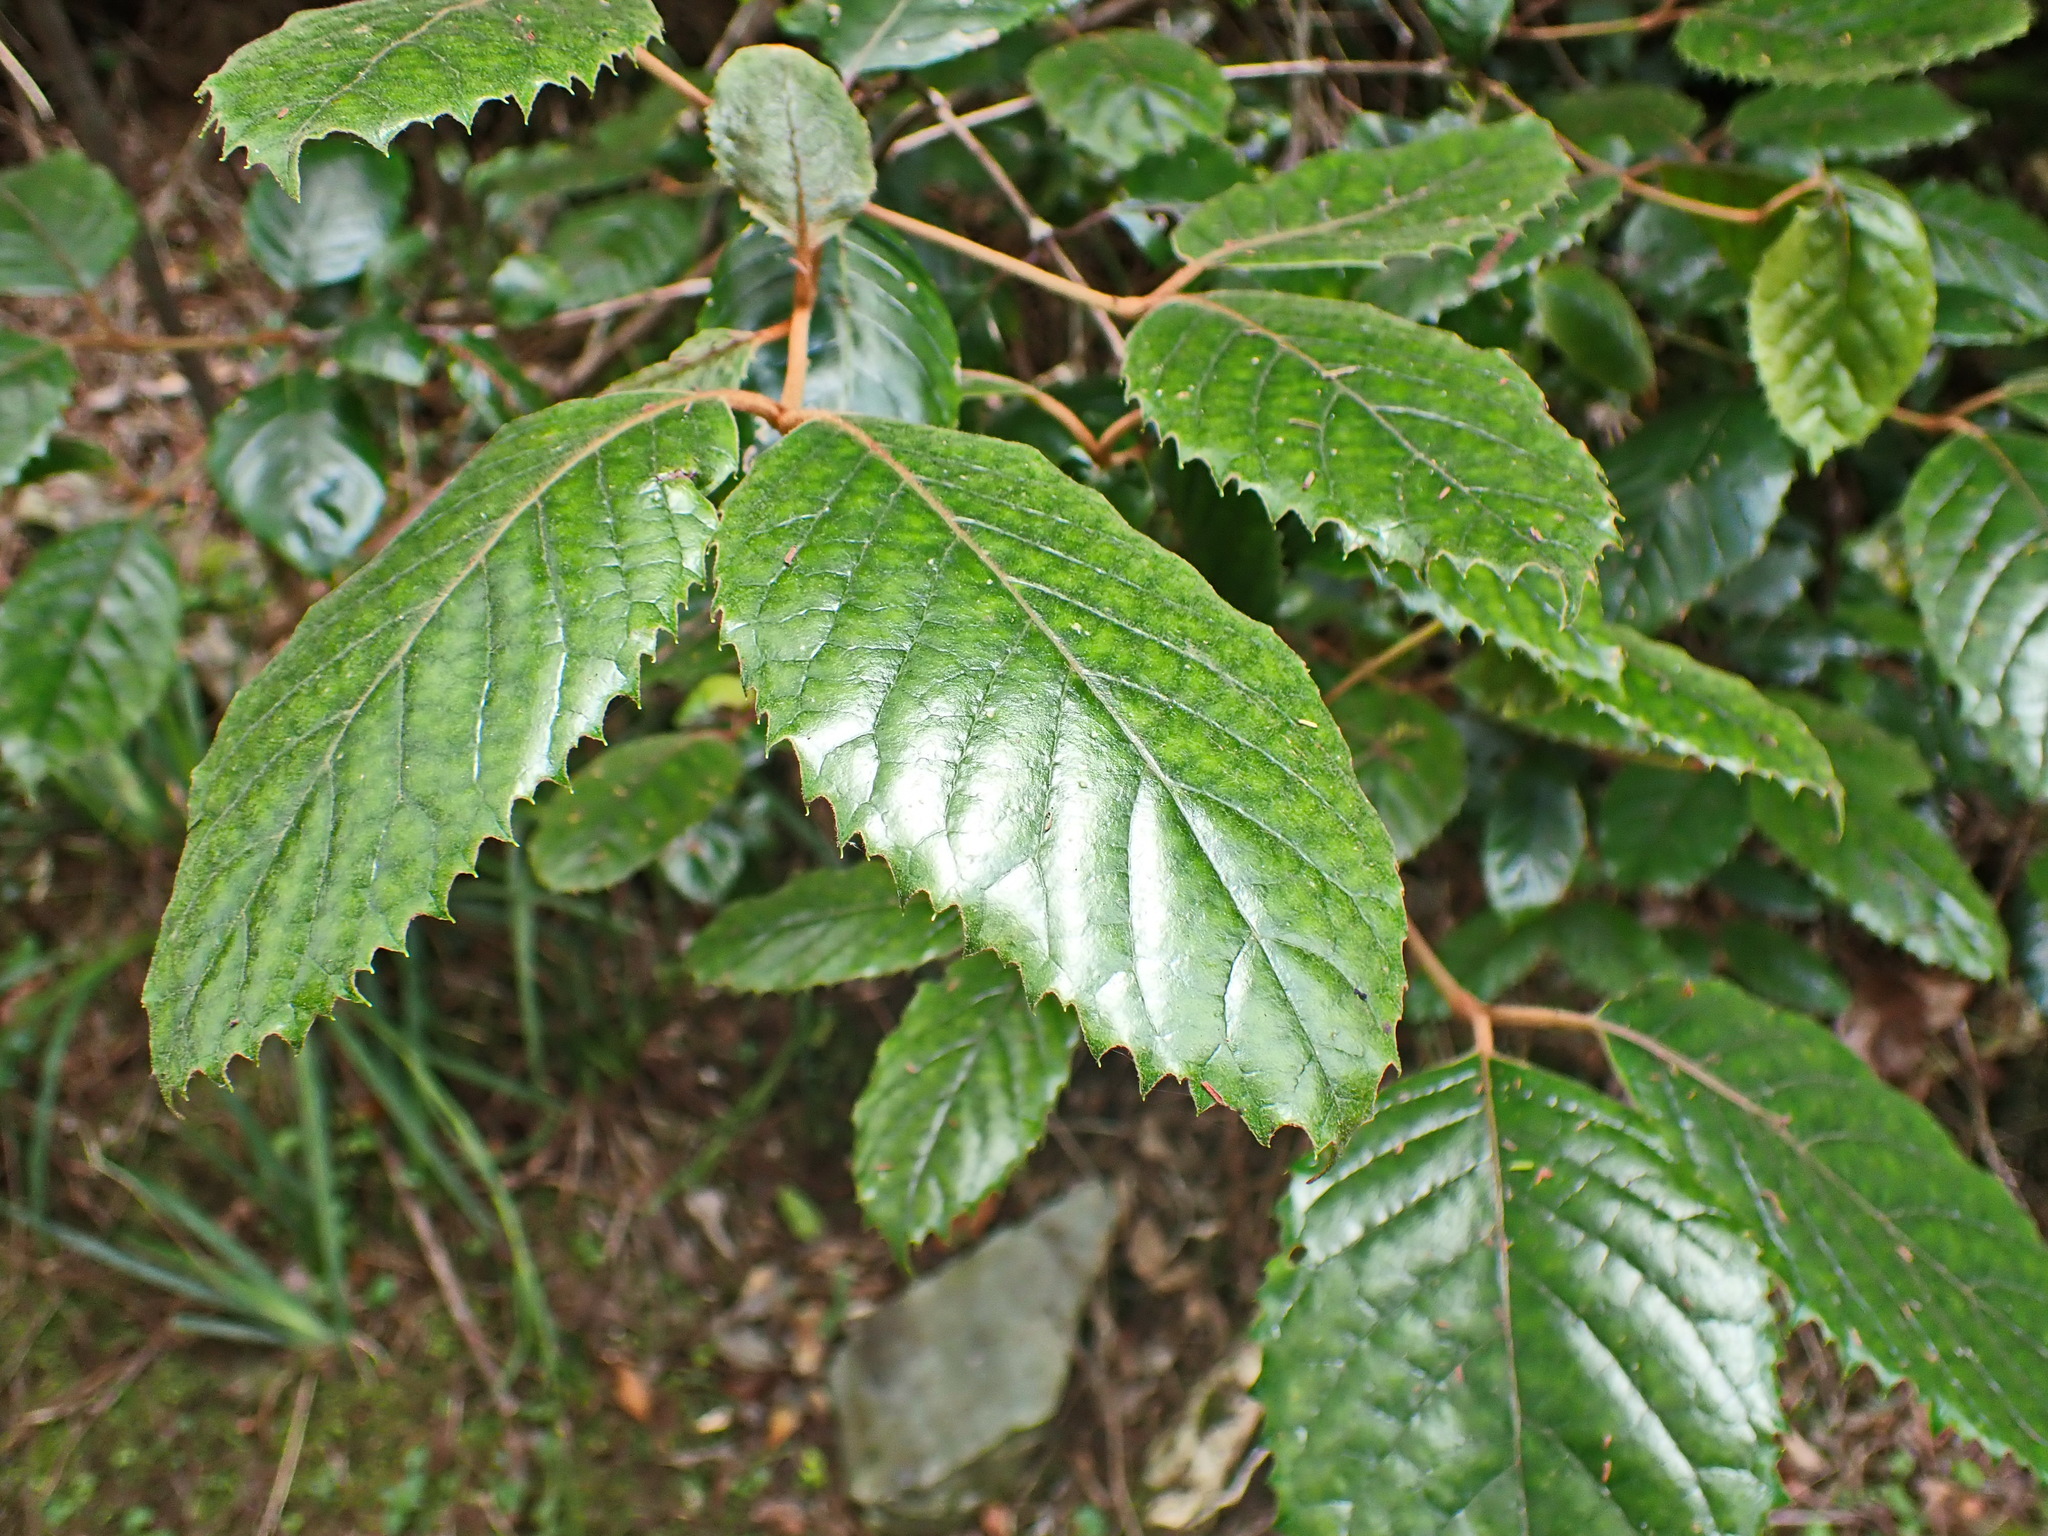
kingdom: Plantae
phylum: Tracheophyta
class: Magnoliopsida
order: Cornales
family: Curtisiaceae
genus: Curtisia
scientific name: Curtisia dentata
